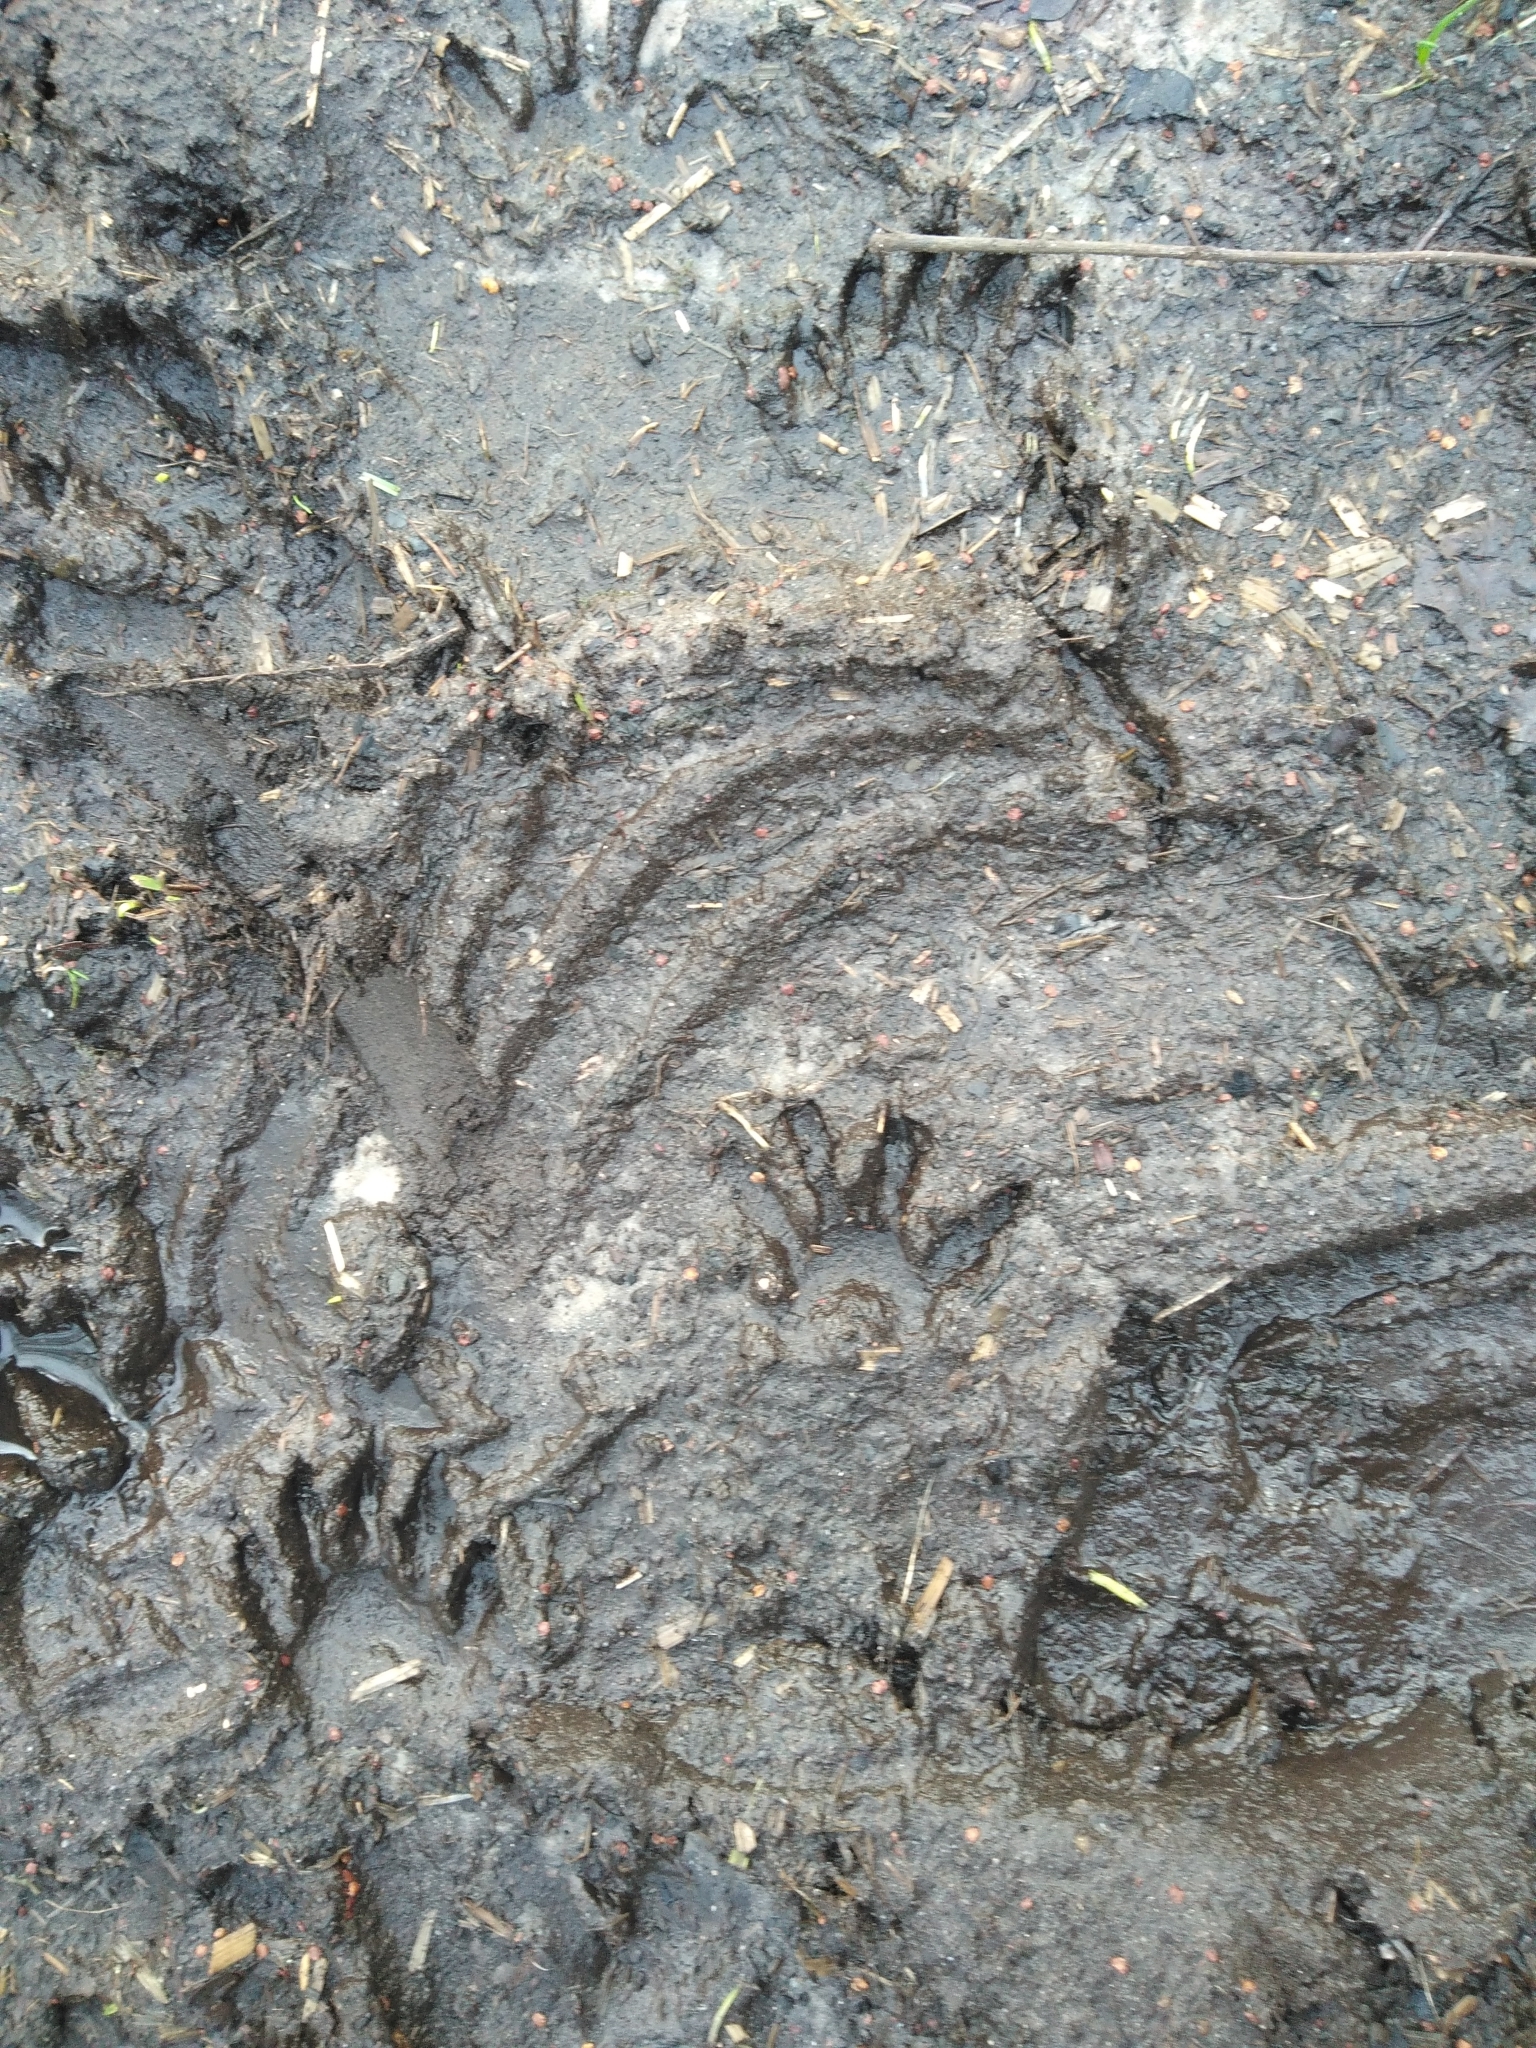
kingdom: Animalia
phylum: Chordata
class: Mammalia
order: Carnivora
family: Procyonidae
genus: Procyon
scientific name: Procyon lotor
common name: Raccoon
